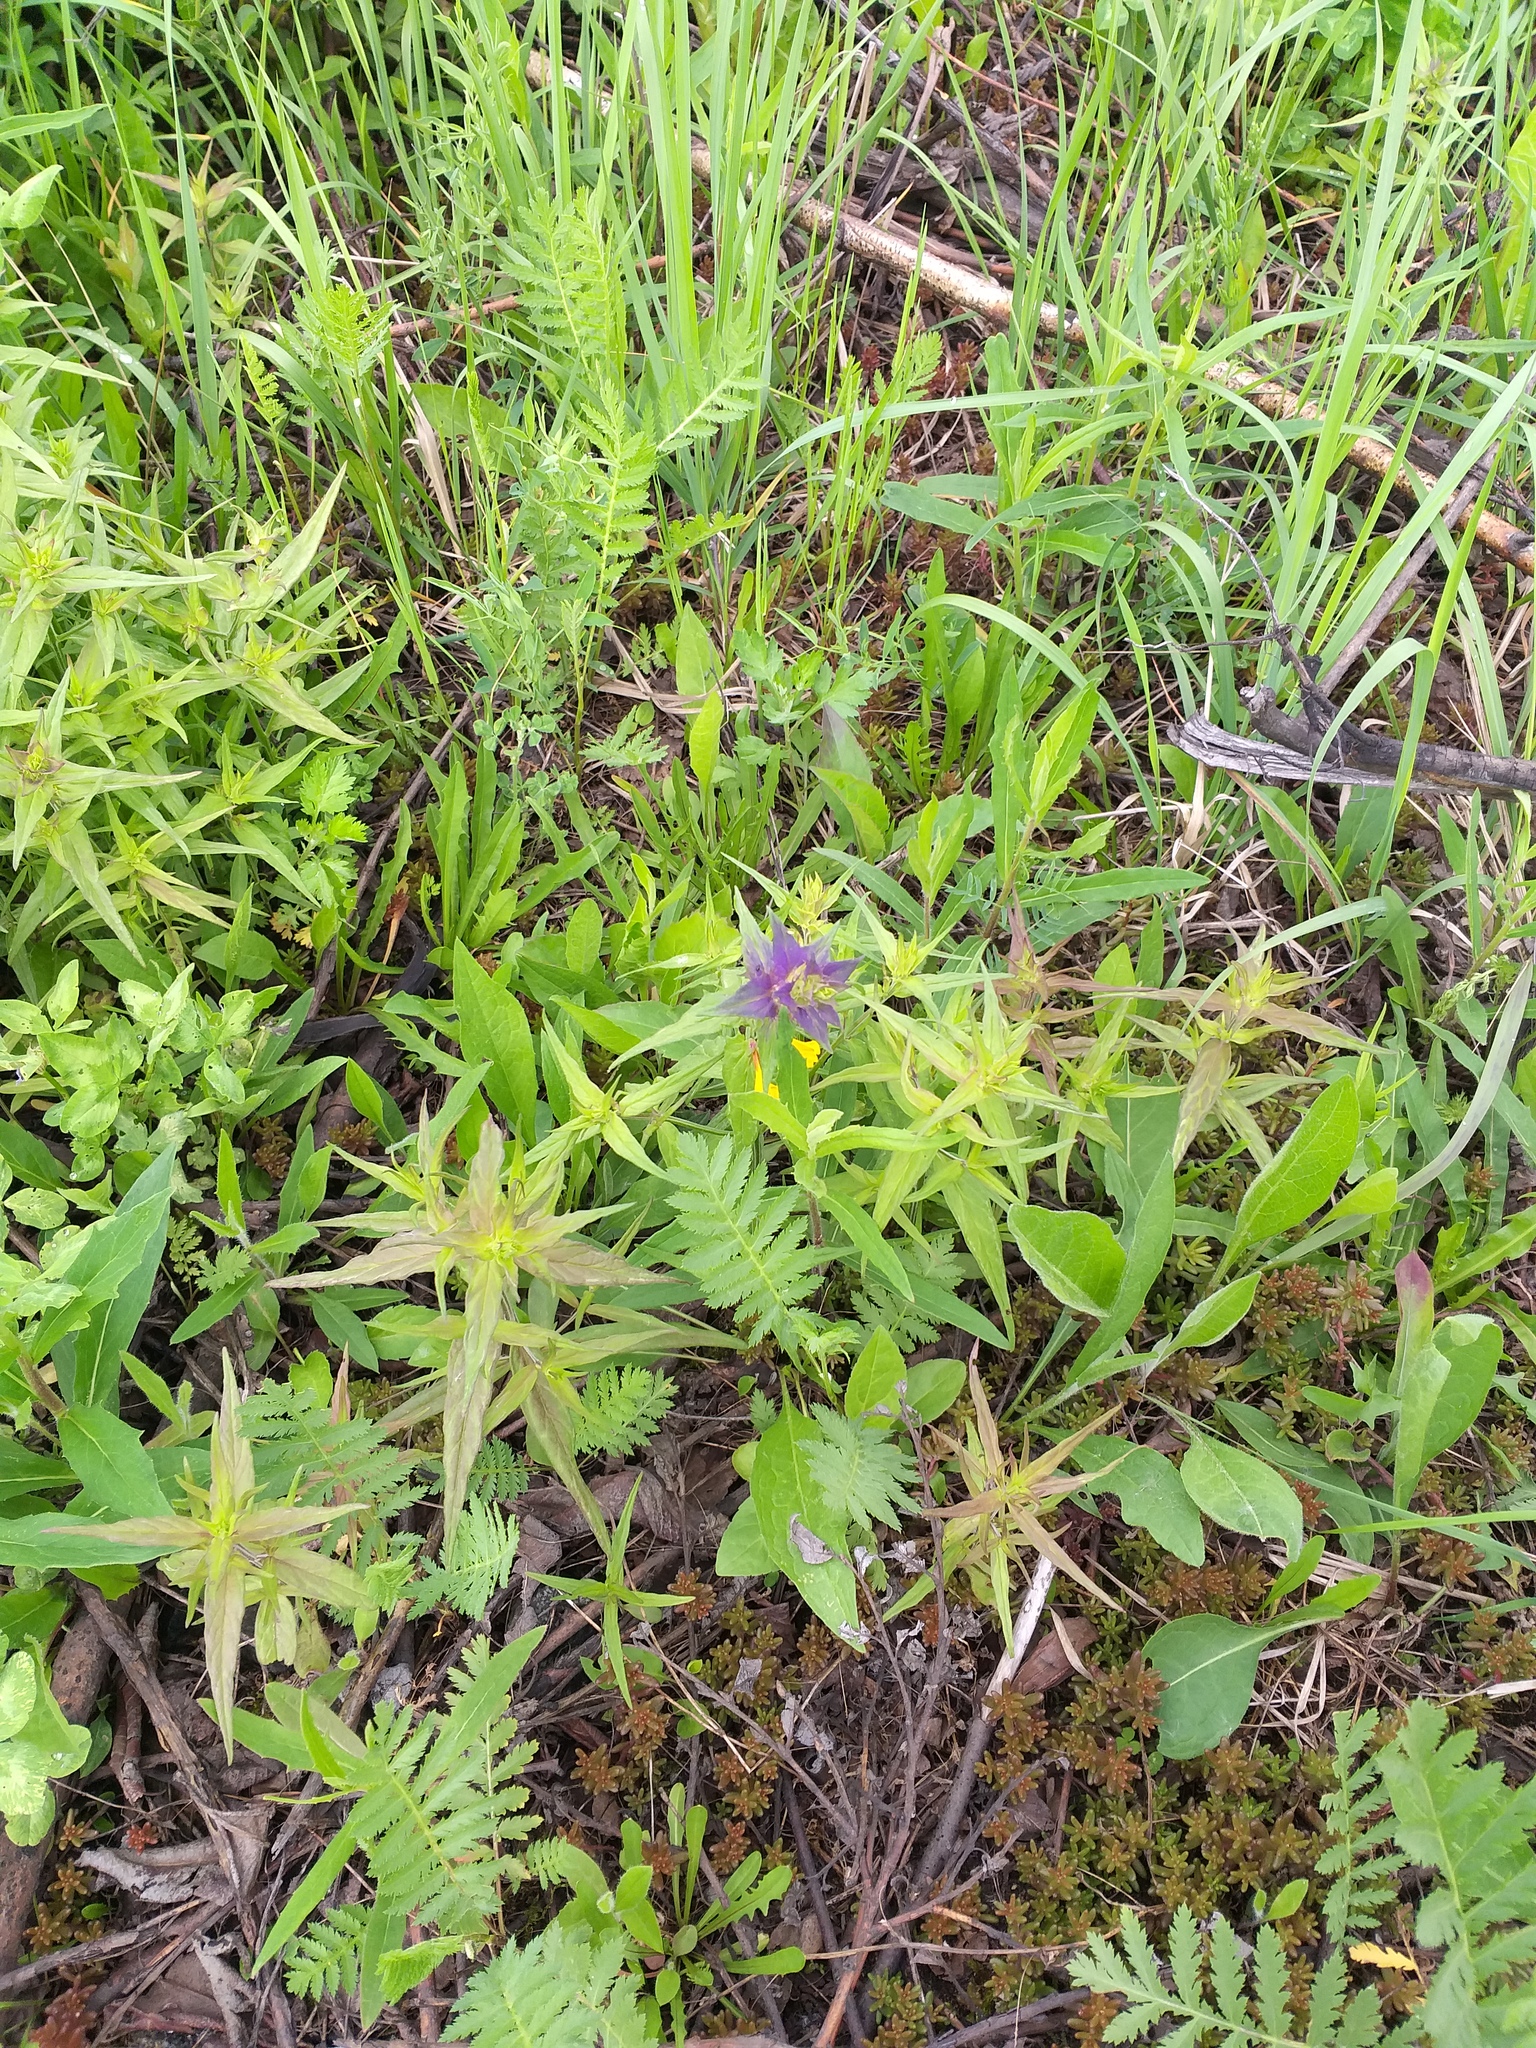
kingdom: Plantae
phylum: Tracheophyta
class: Magnoliopsida
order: Lamiales
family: Orobanchaceae
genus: Melampyrum
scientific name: Melampyrum nemorosum
